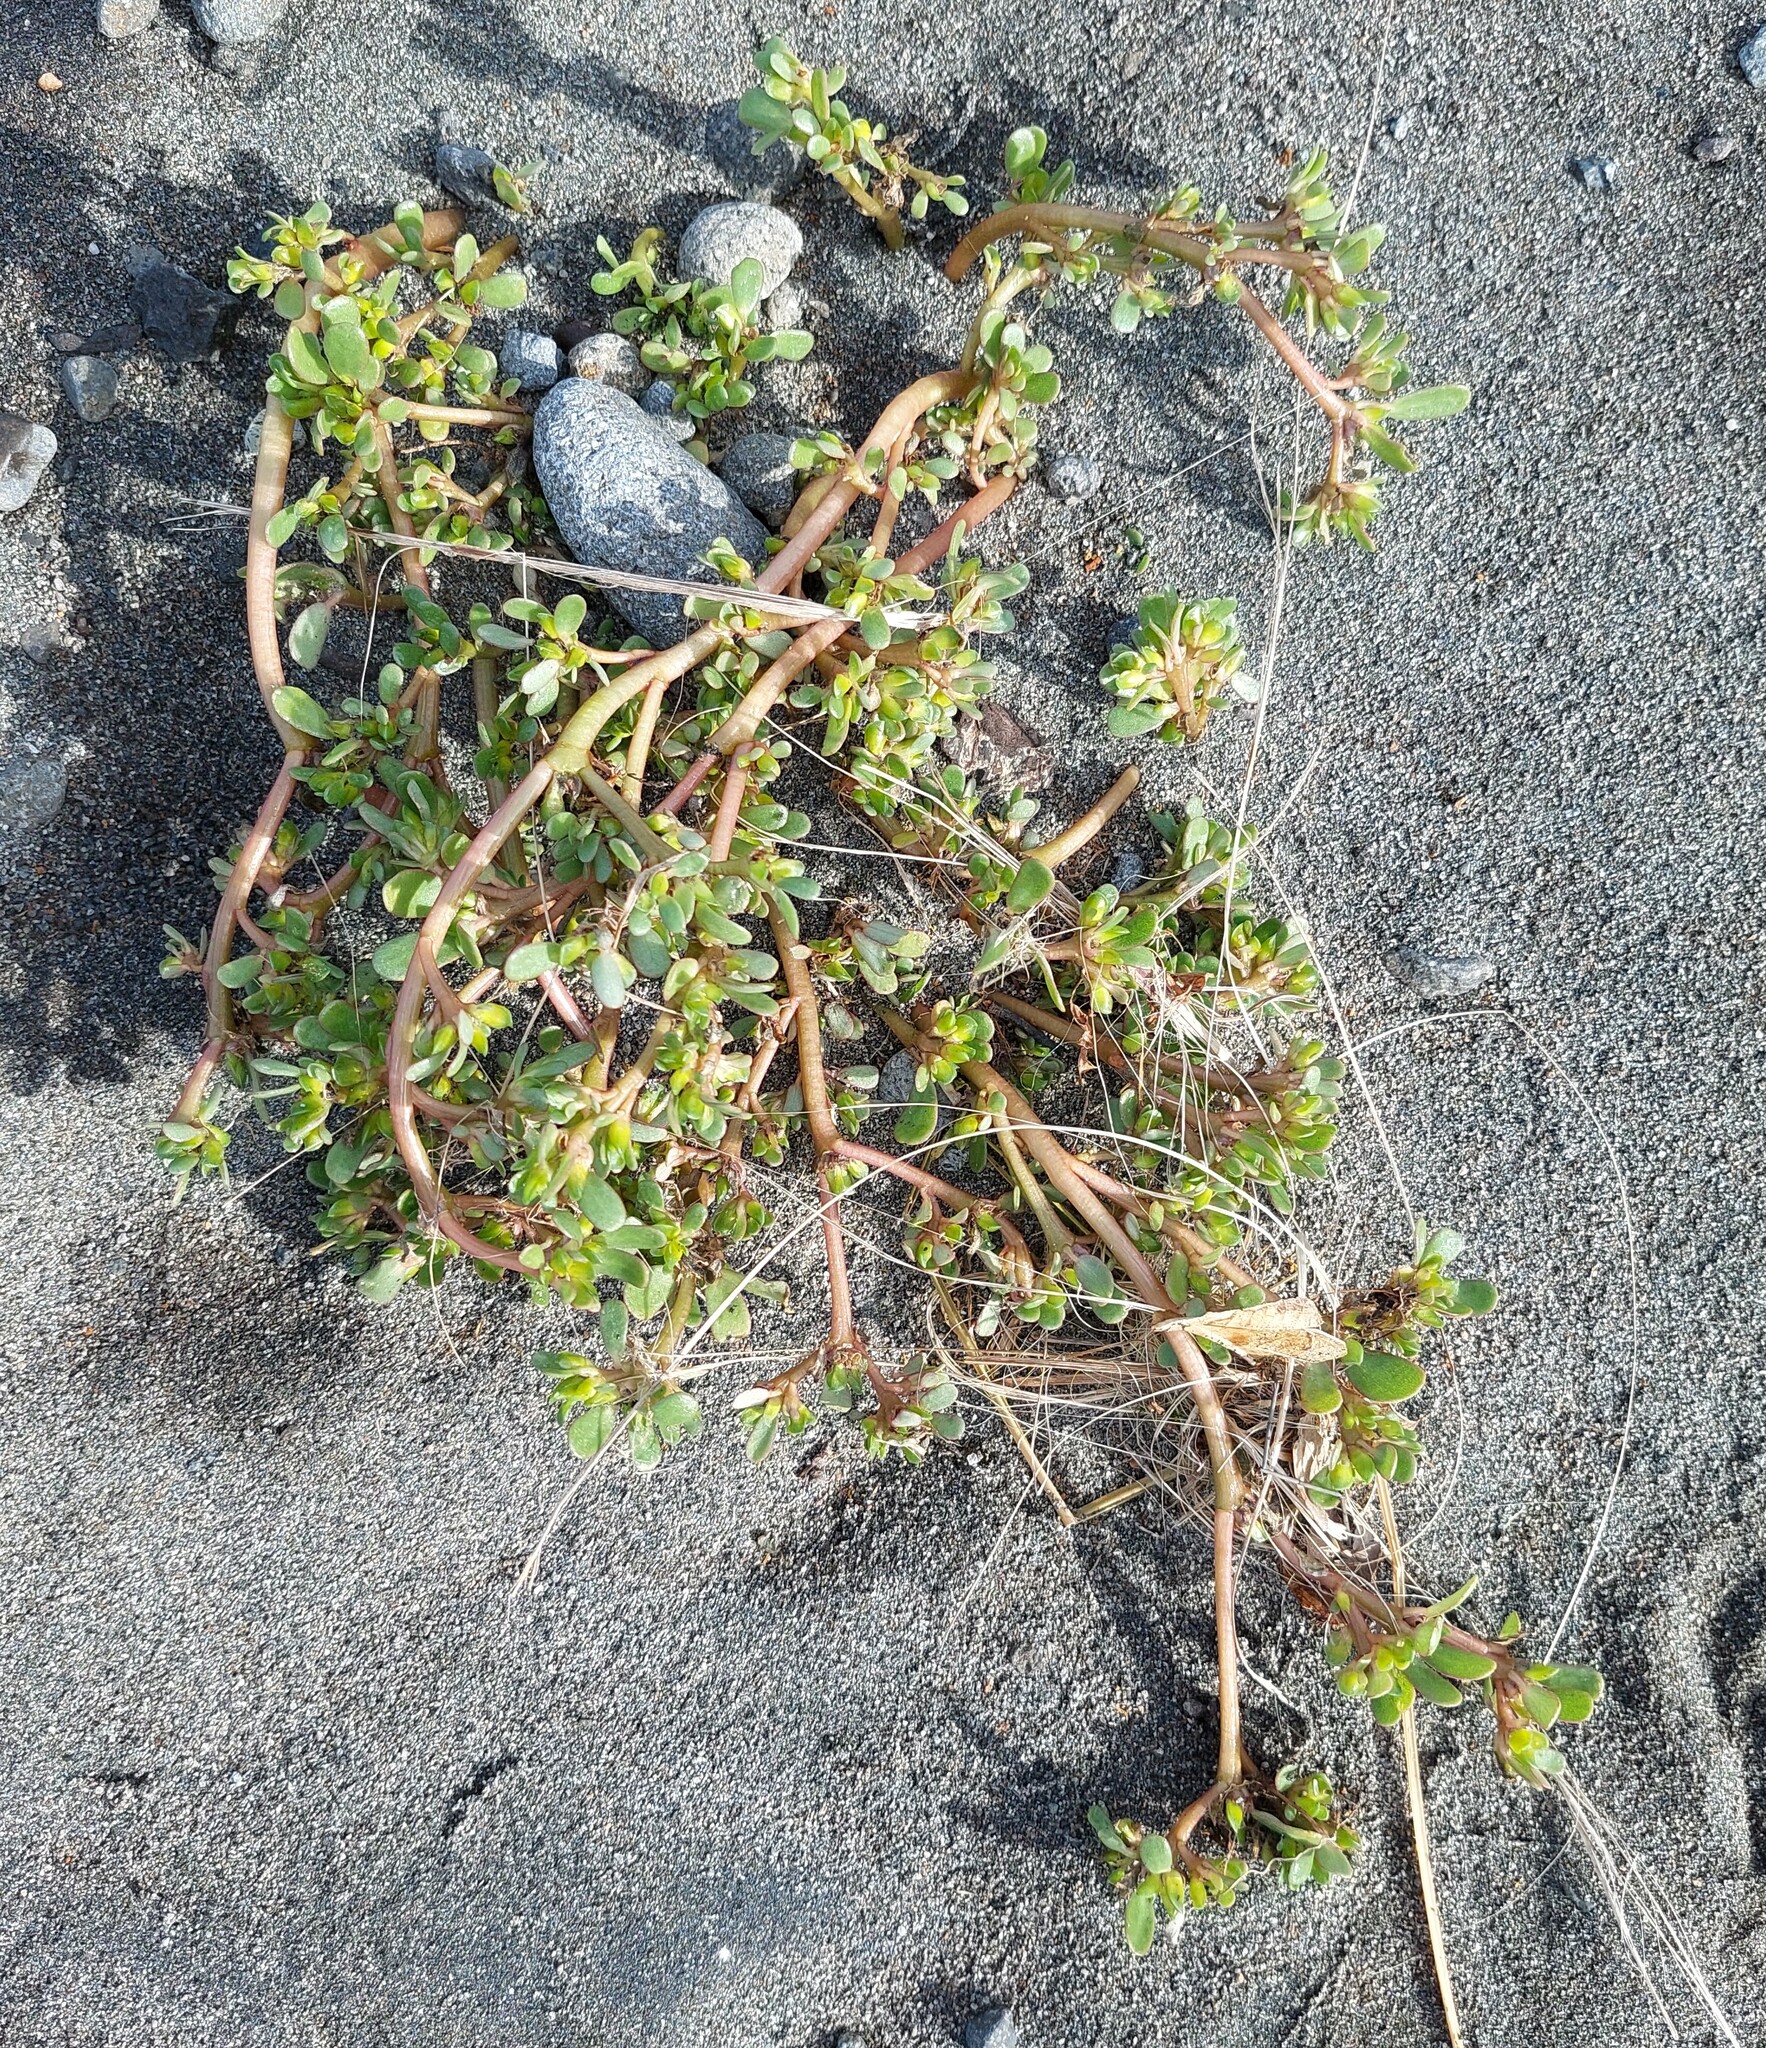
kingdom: Plantae
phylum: Tracheophyta
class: Magnoliopsida
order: Caryophyllales
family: Portulacaceae
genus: Portulaca
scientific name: Portulaca oleracea
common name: Common purslane
